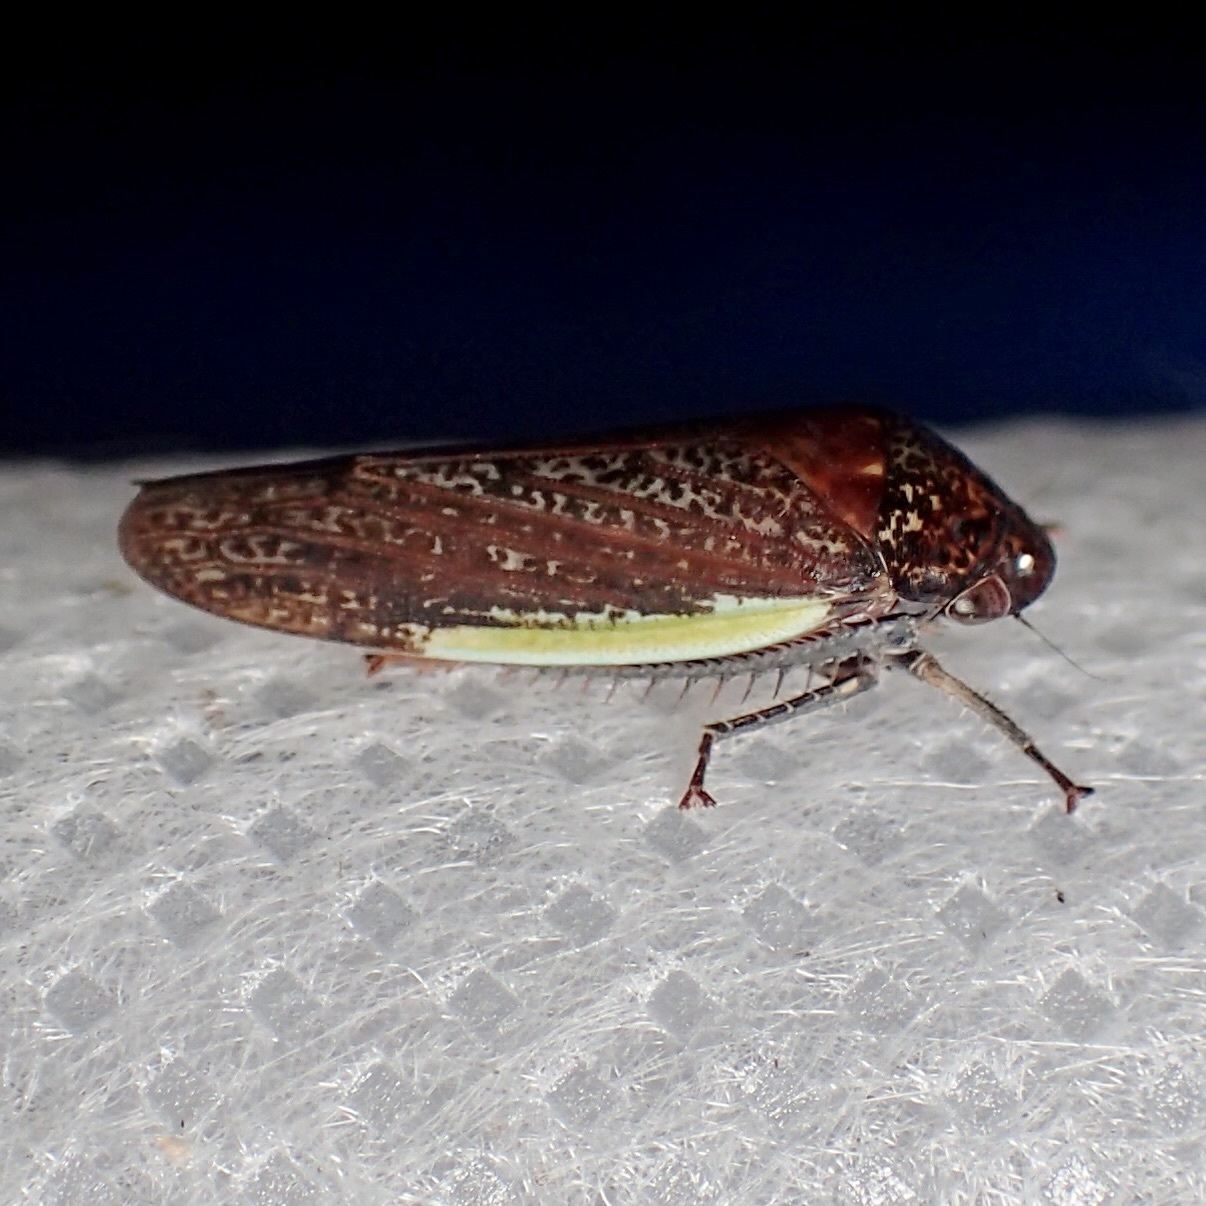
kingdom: Animalia
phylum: Arthropoda
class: Insecta
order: Hemiptera
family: Cicadellidae
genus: Hamana
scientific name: Hamana gelbata
